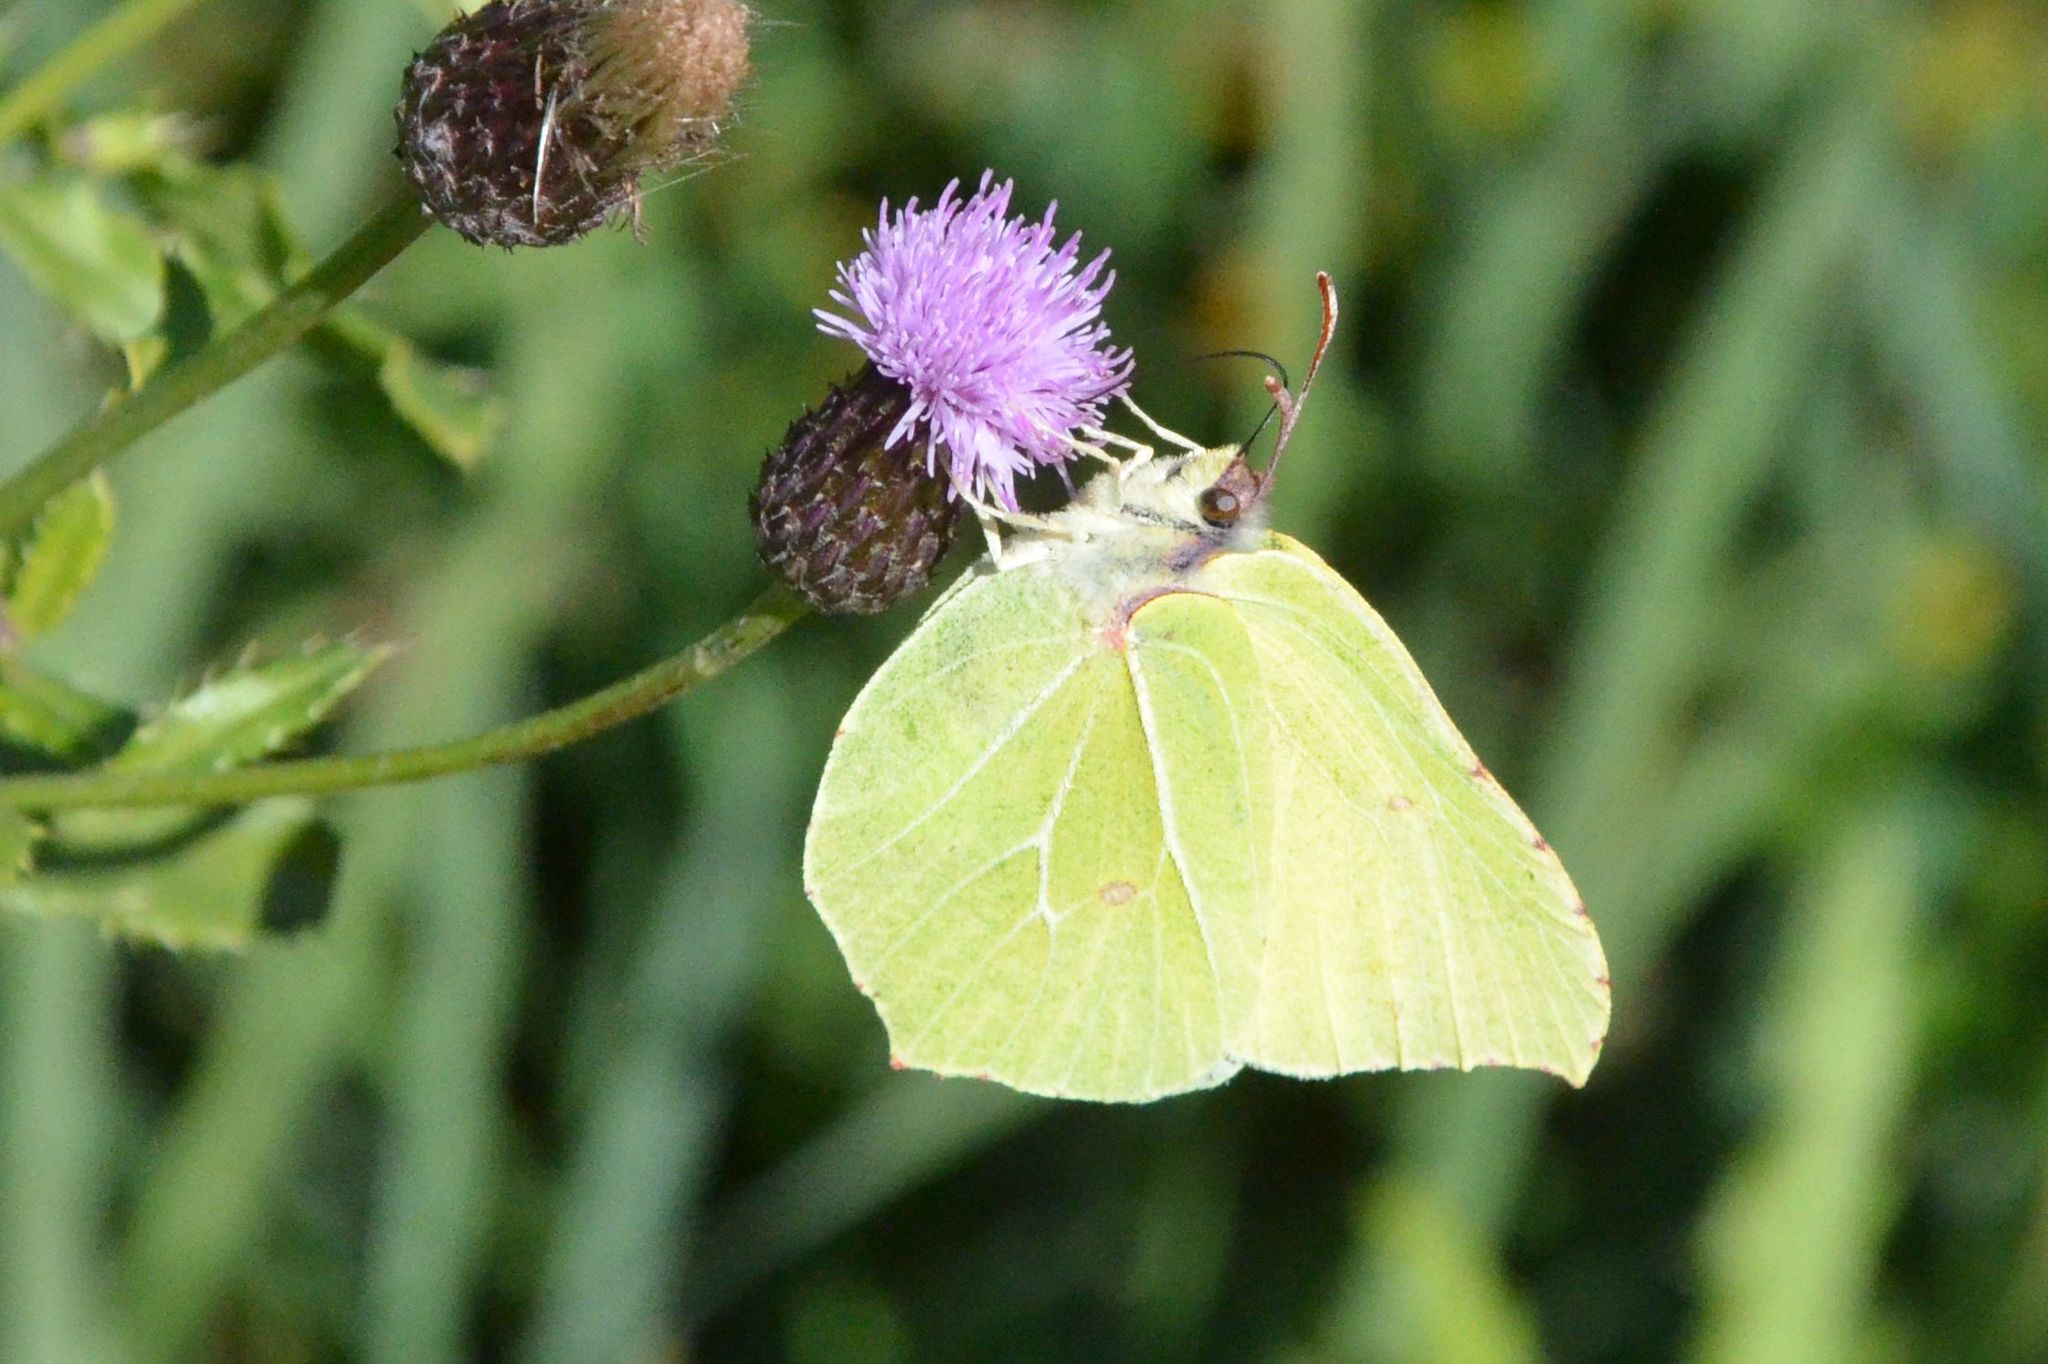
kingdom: Animalia
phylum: Arthropoda
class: Insecta
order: Lepidoptera
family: Pieridae
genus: Gonepteryx
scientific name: Gonepteryx rhamni
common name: Brimstone
